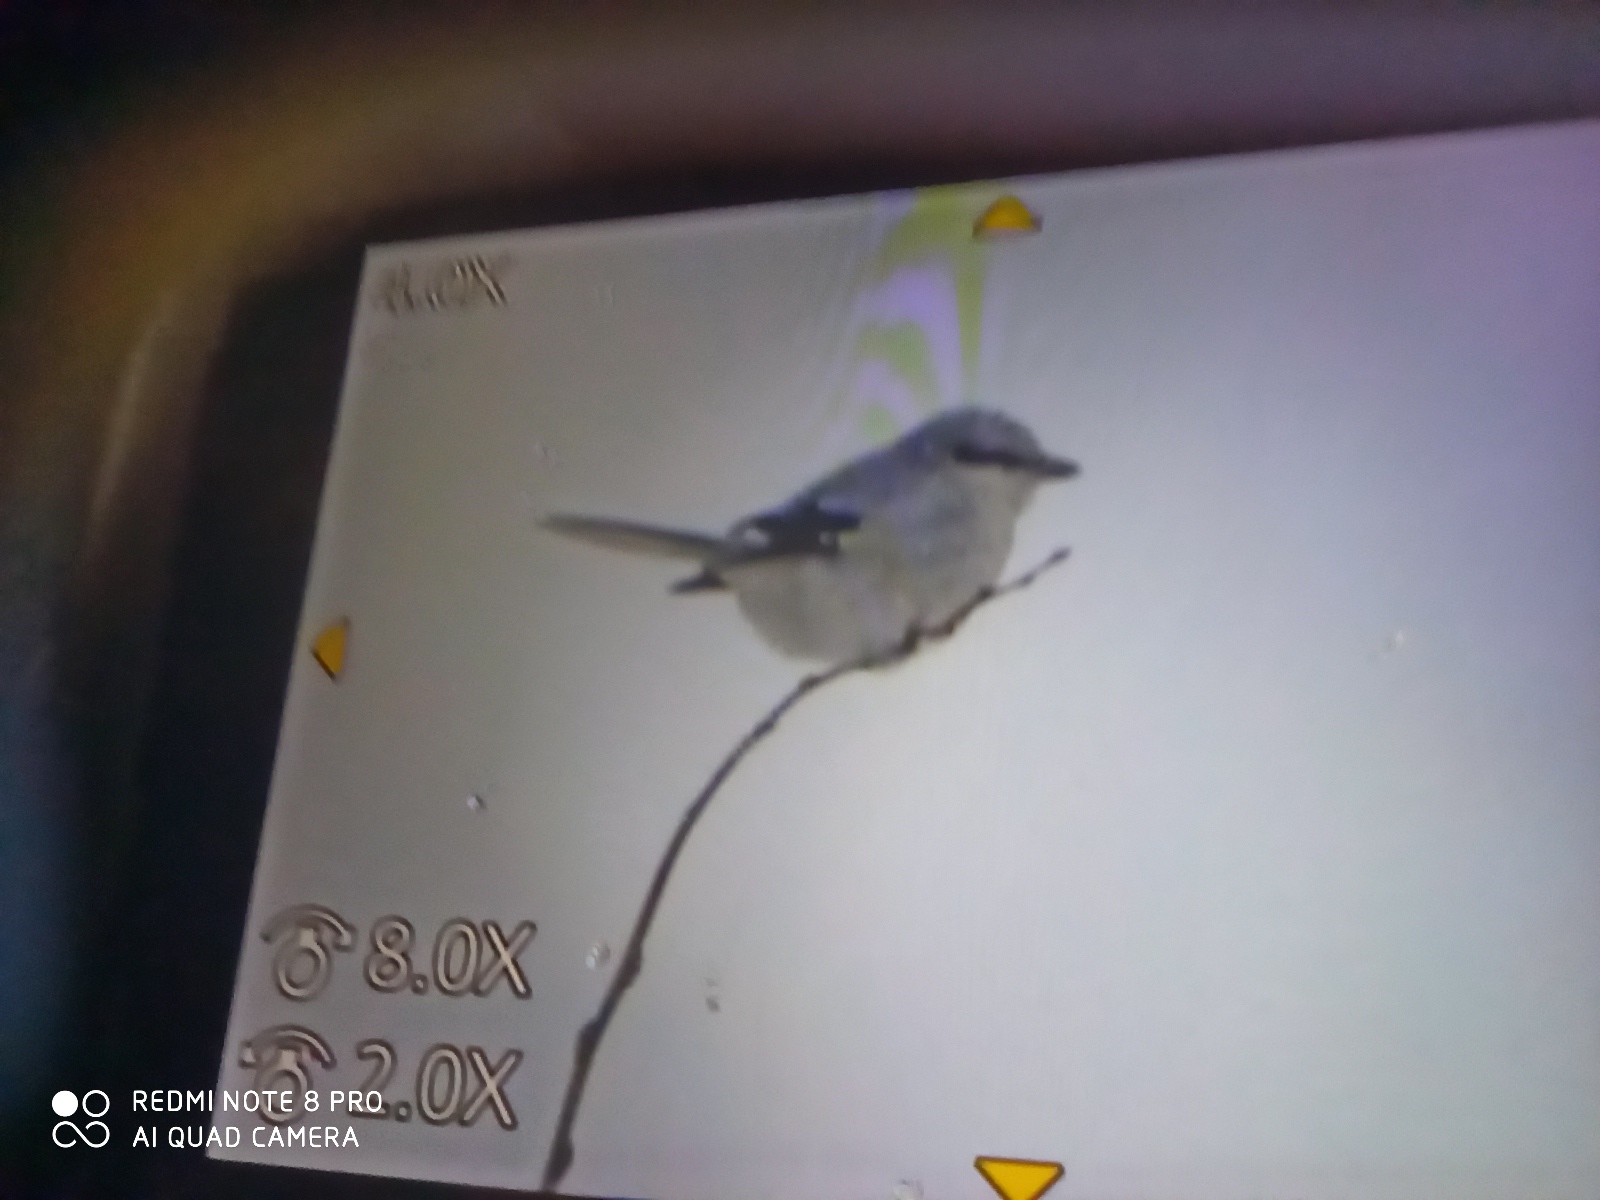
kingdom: Animalia
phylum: Chordata
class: Aves
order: Passeriformes
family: Laniidae
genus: Lanius
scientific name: Lanius excubitor
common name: Great grey shrike
